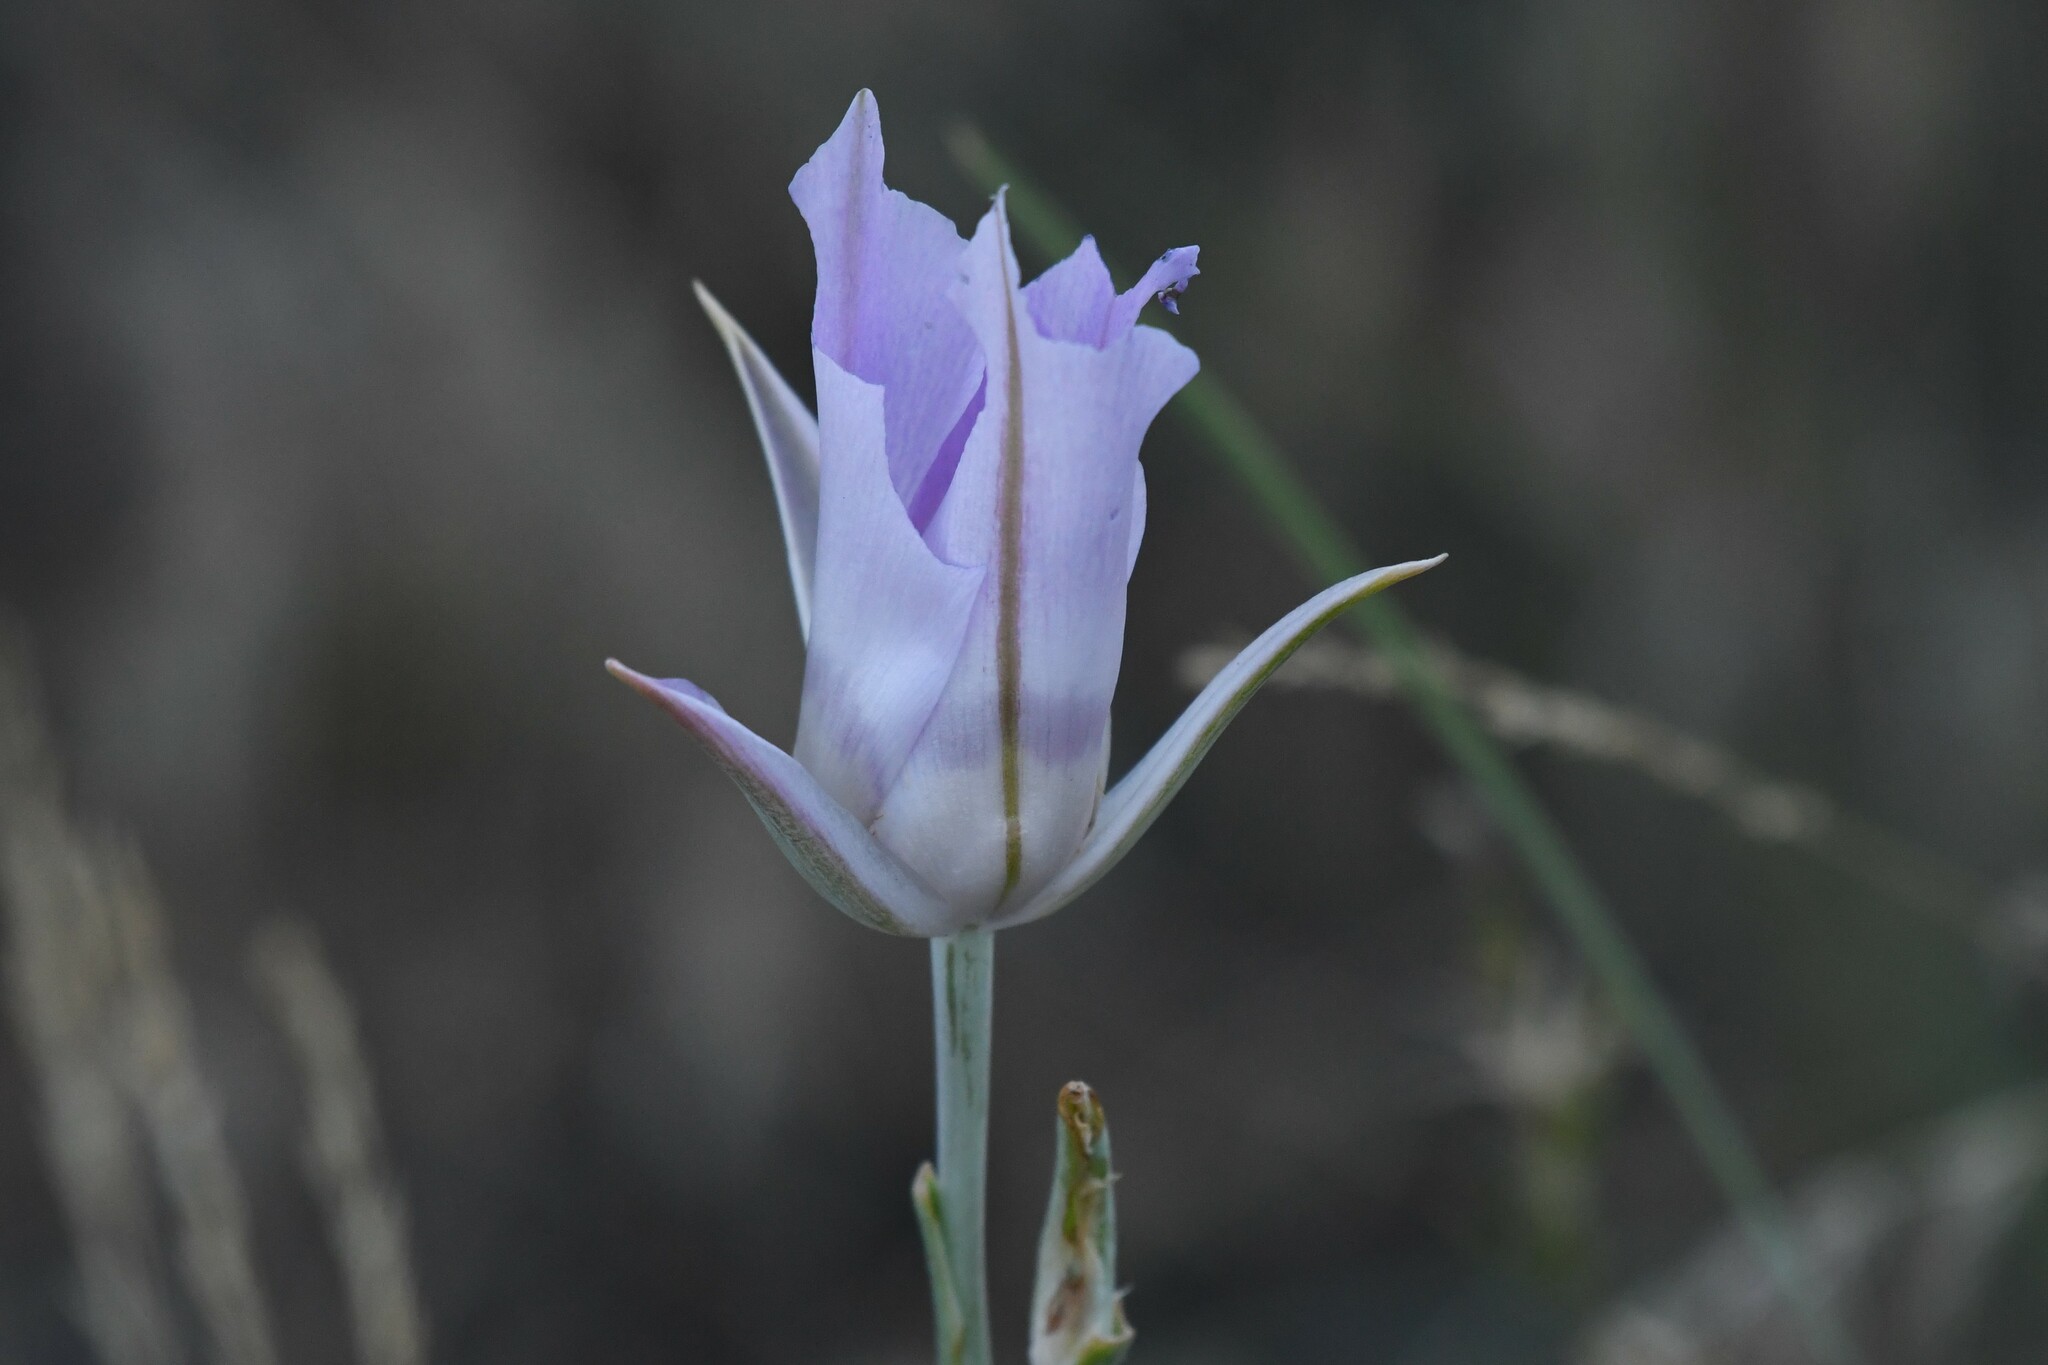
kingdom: Plantae
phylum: Tracheophyta
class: Liliopsida
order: Liliales
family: Liliaceae
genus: Calochortus
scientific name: Calochortus macrocarpus
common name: Green-band mariposa lily
